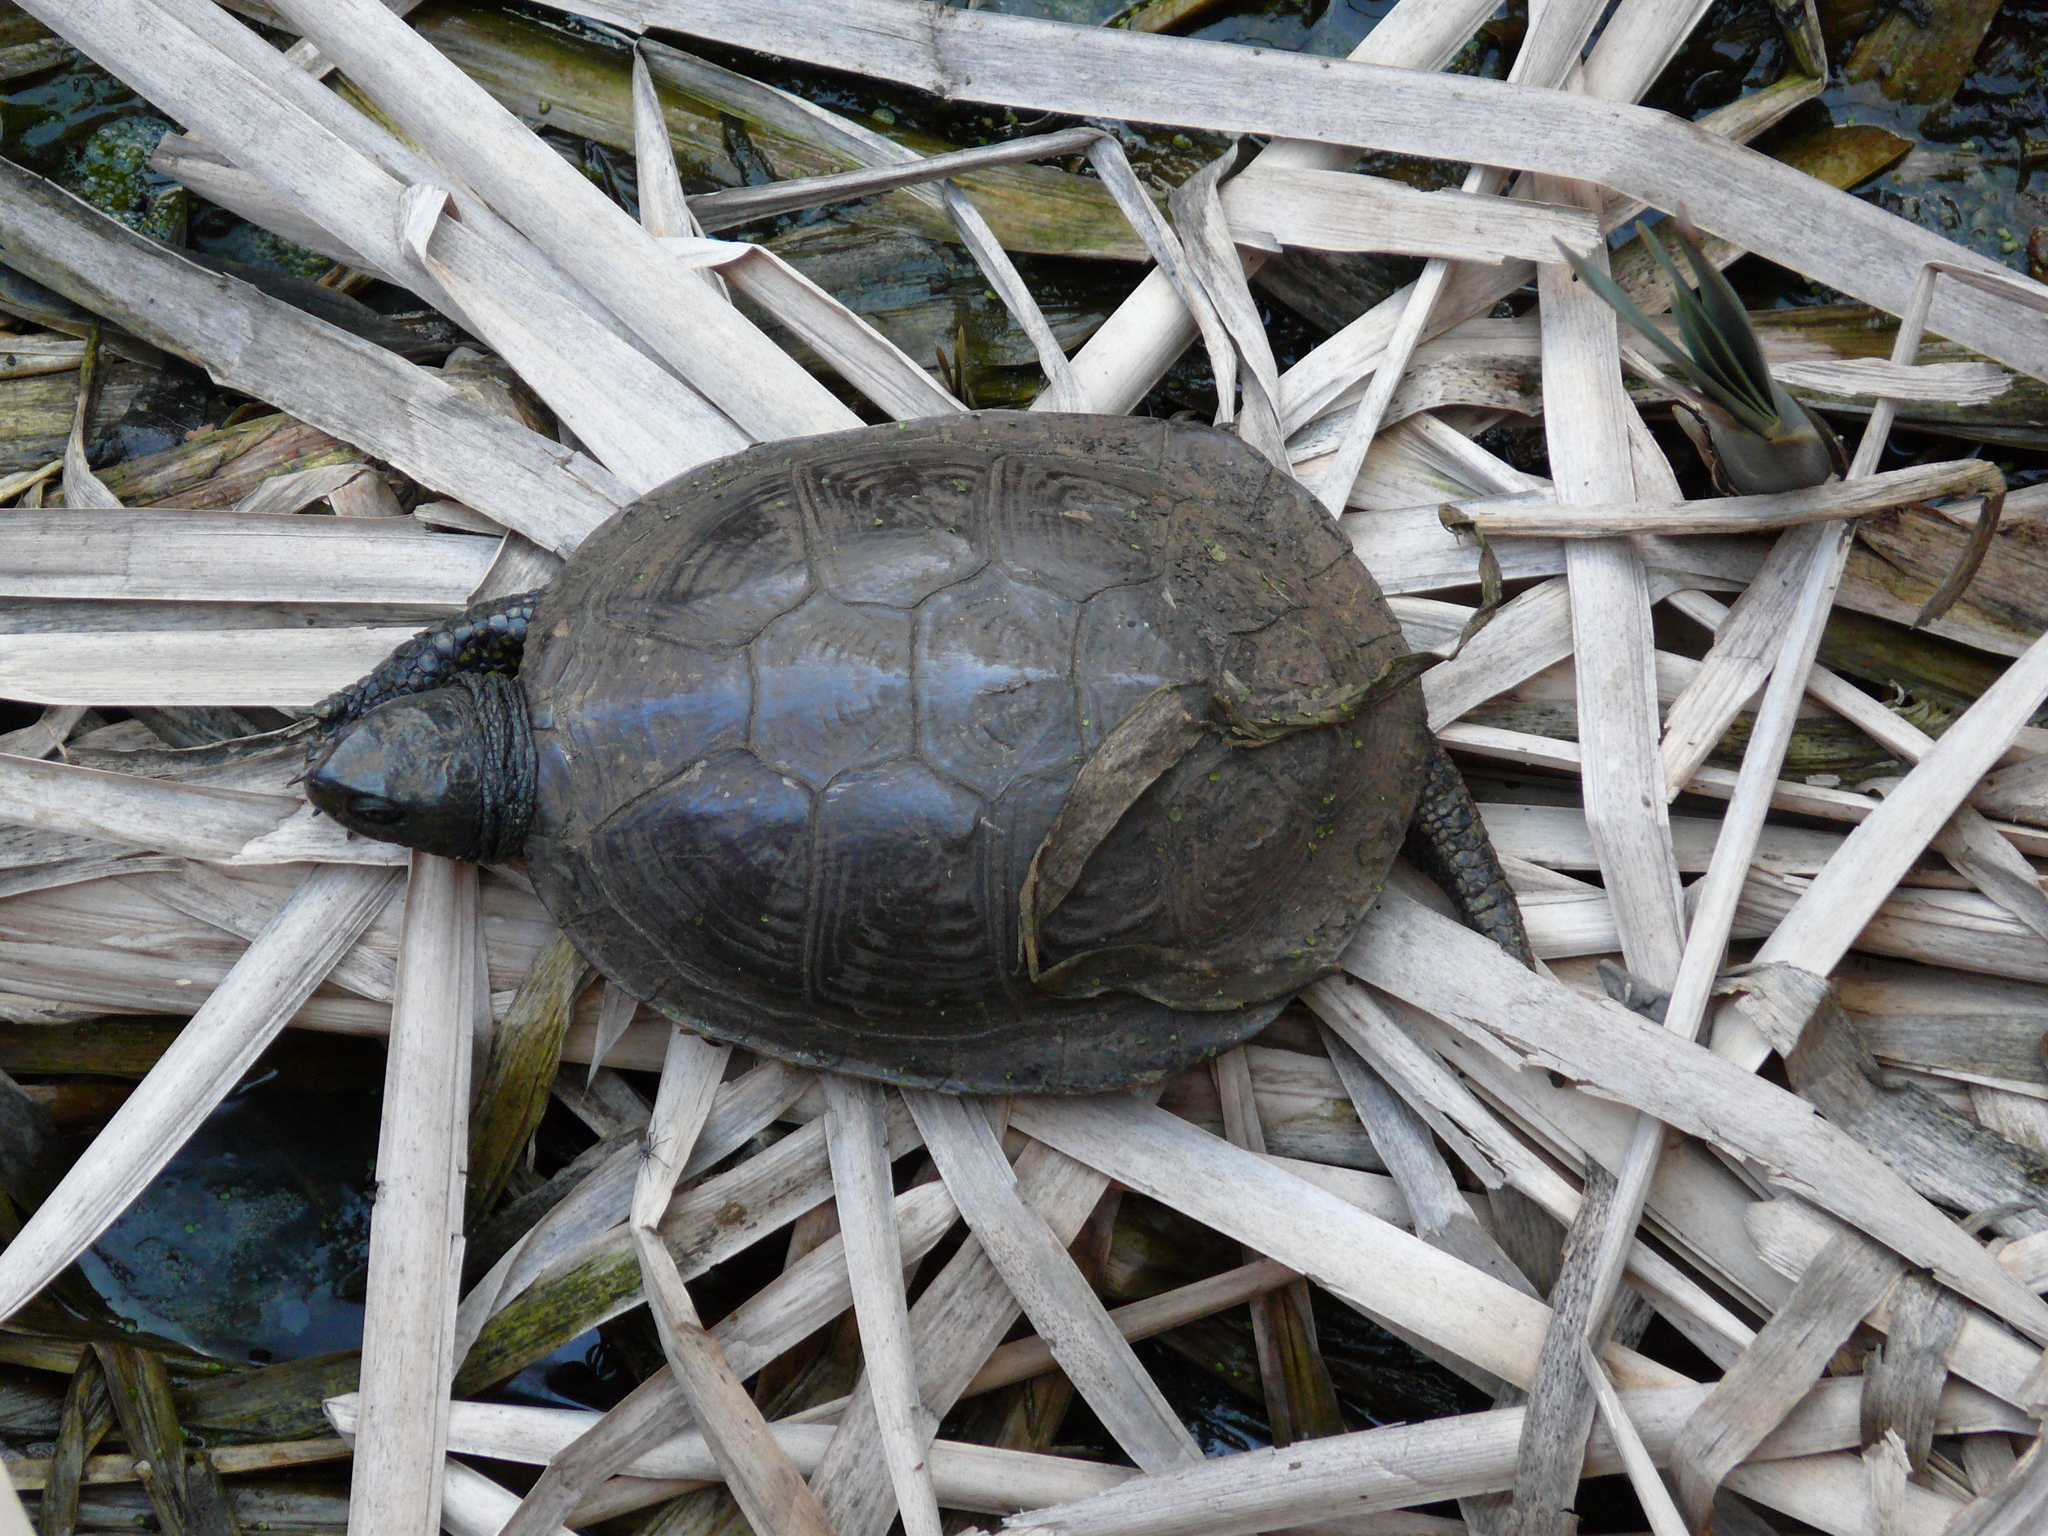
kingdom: Animalia
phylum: Chordata
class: Testudines
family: Emydidae
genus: Emys
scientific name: Emys orbicularis
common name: European pond turtle
